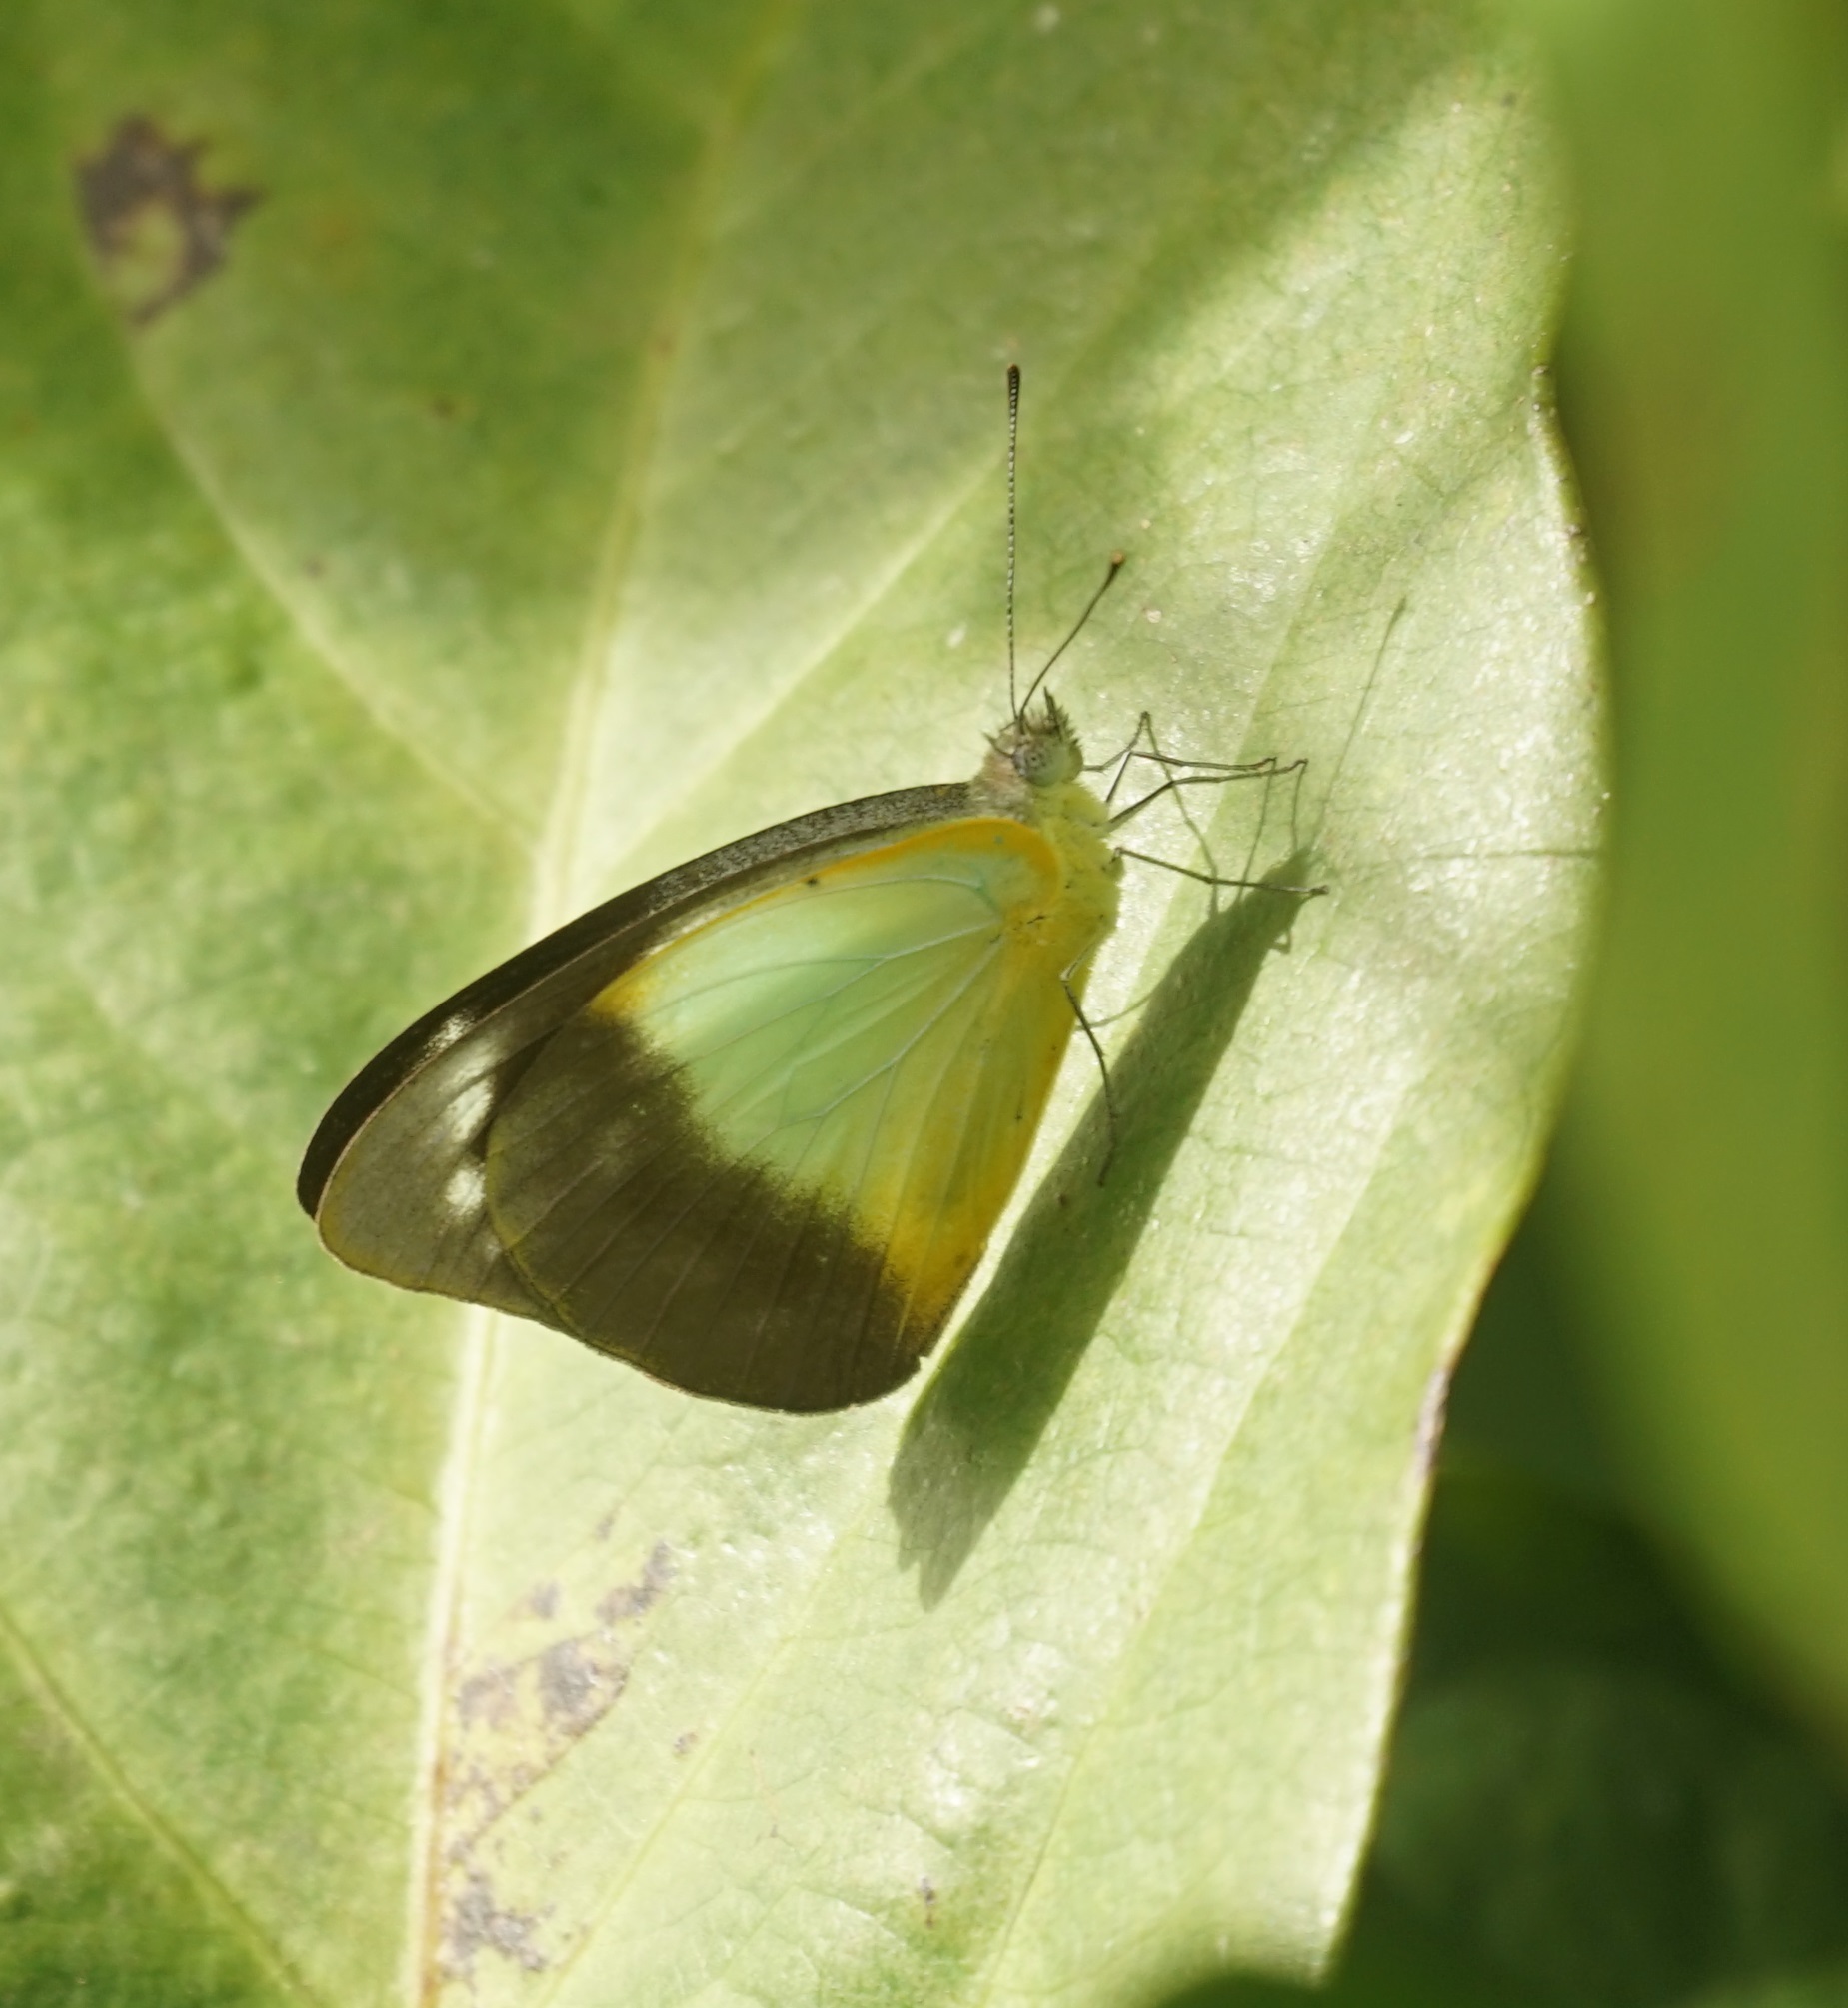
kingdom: Animalia
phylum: Arthropoda
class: Insecta
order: Lepidoptera
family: Pieridae
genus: Appias
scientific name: Appias paulina
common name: Ceylon lesser albatross
